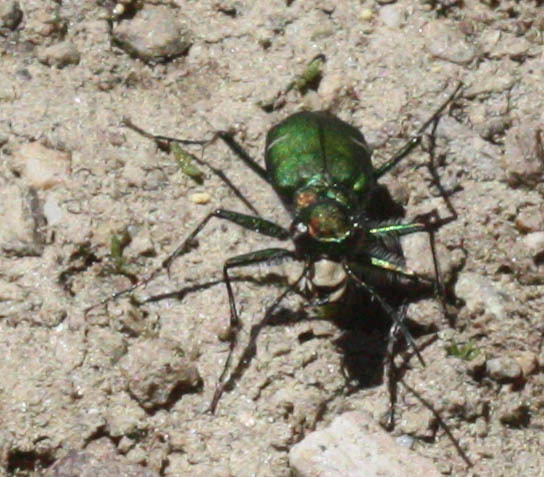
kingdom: Animalia
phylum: Arthropoda
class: Insecta
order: Coleoptera
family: Carabidae
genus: Cicindela
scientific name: Cicindela longilabris
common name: Boreal long-lipped tiger beetle
